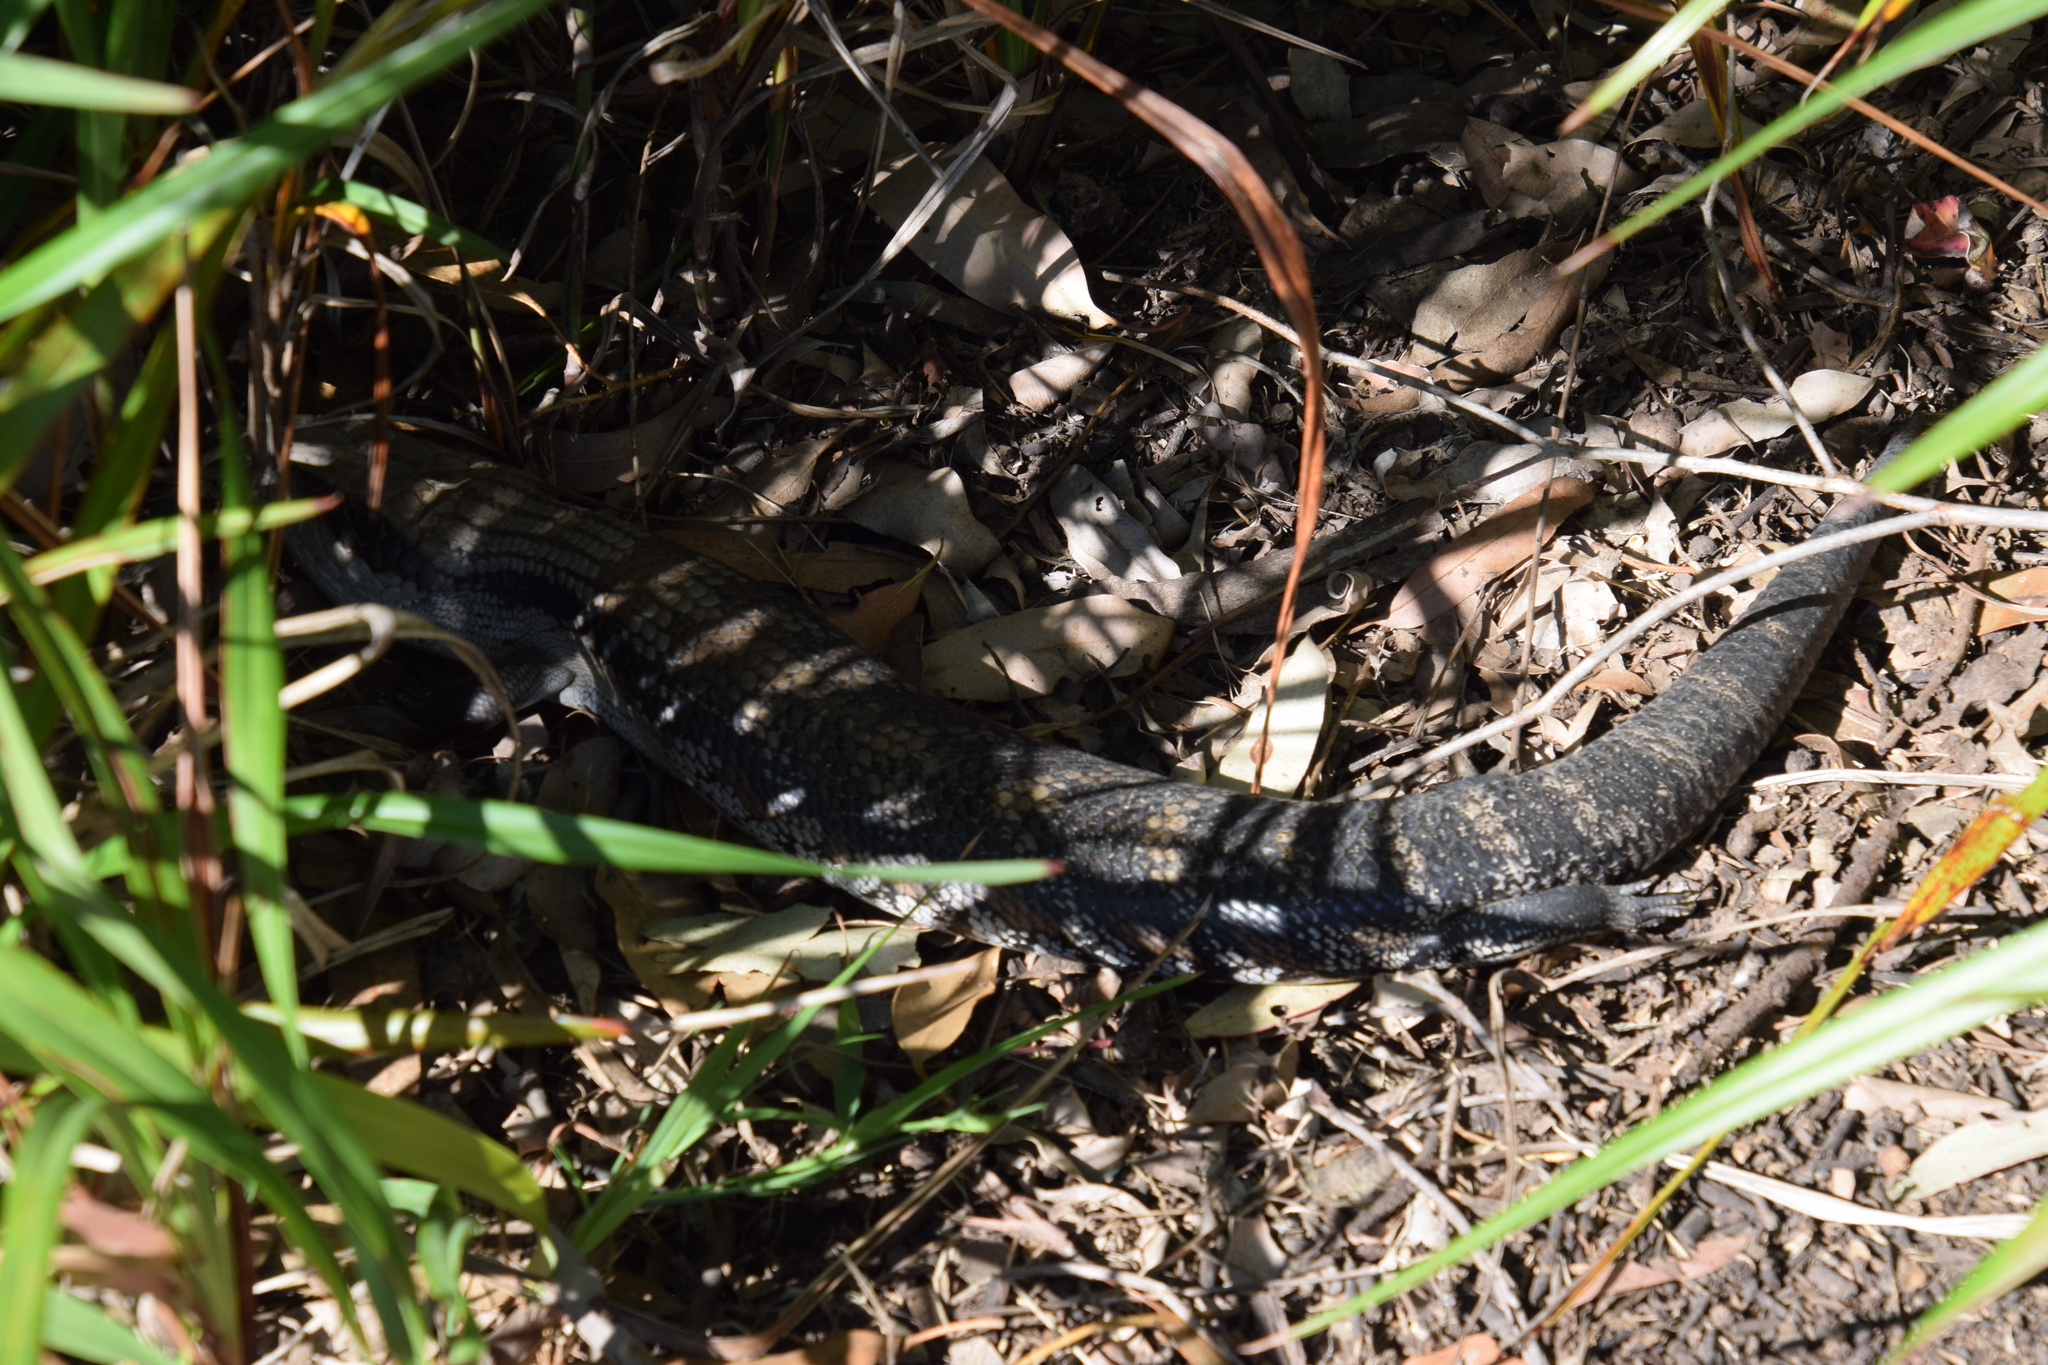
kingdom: Animalia
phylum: Chordata
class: Squamata
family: Scincidae
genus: Tiliqua
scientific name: Tiliqua scincoides
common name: Common bluetongue
